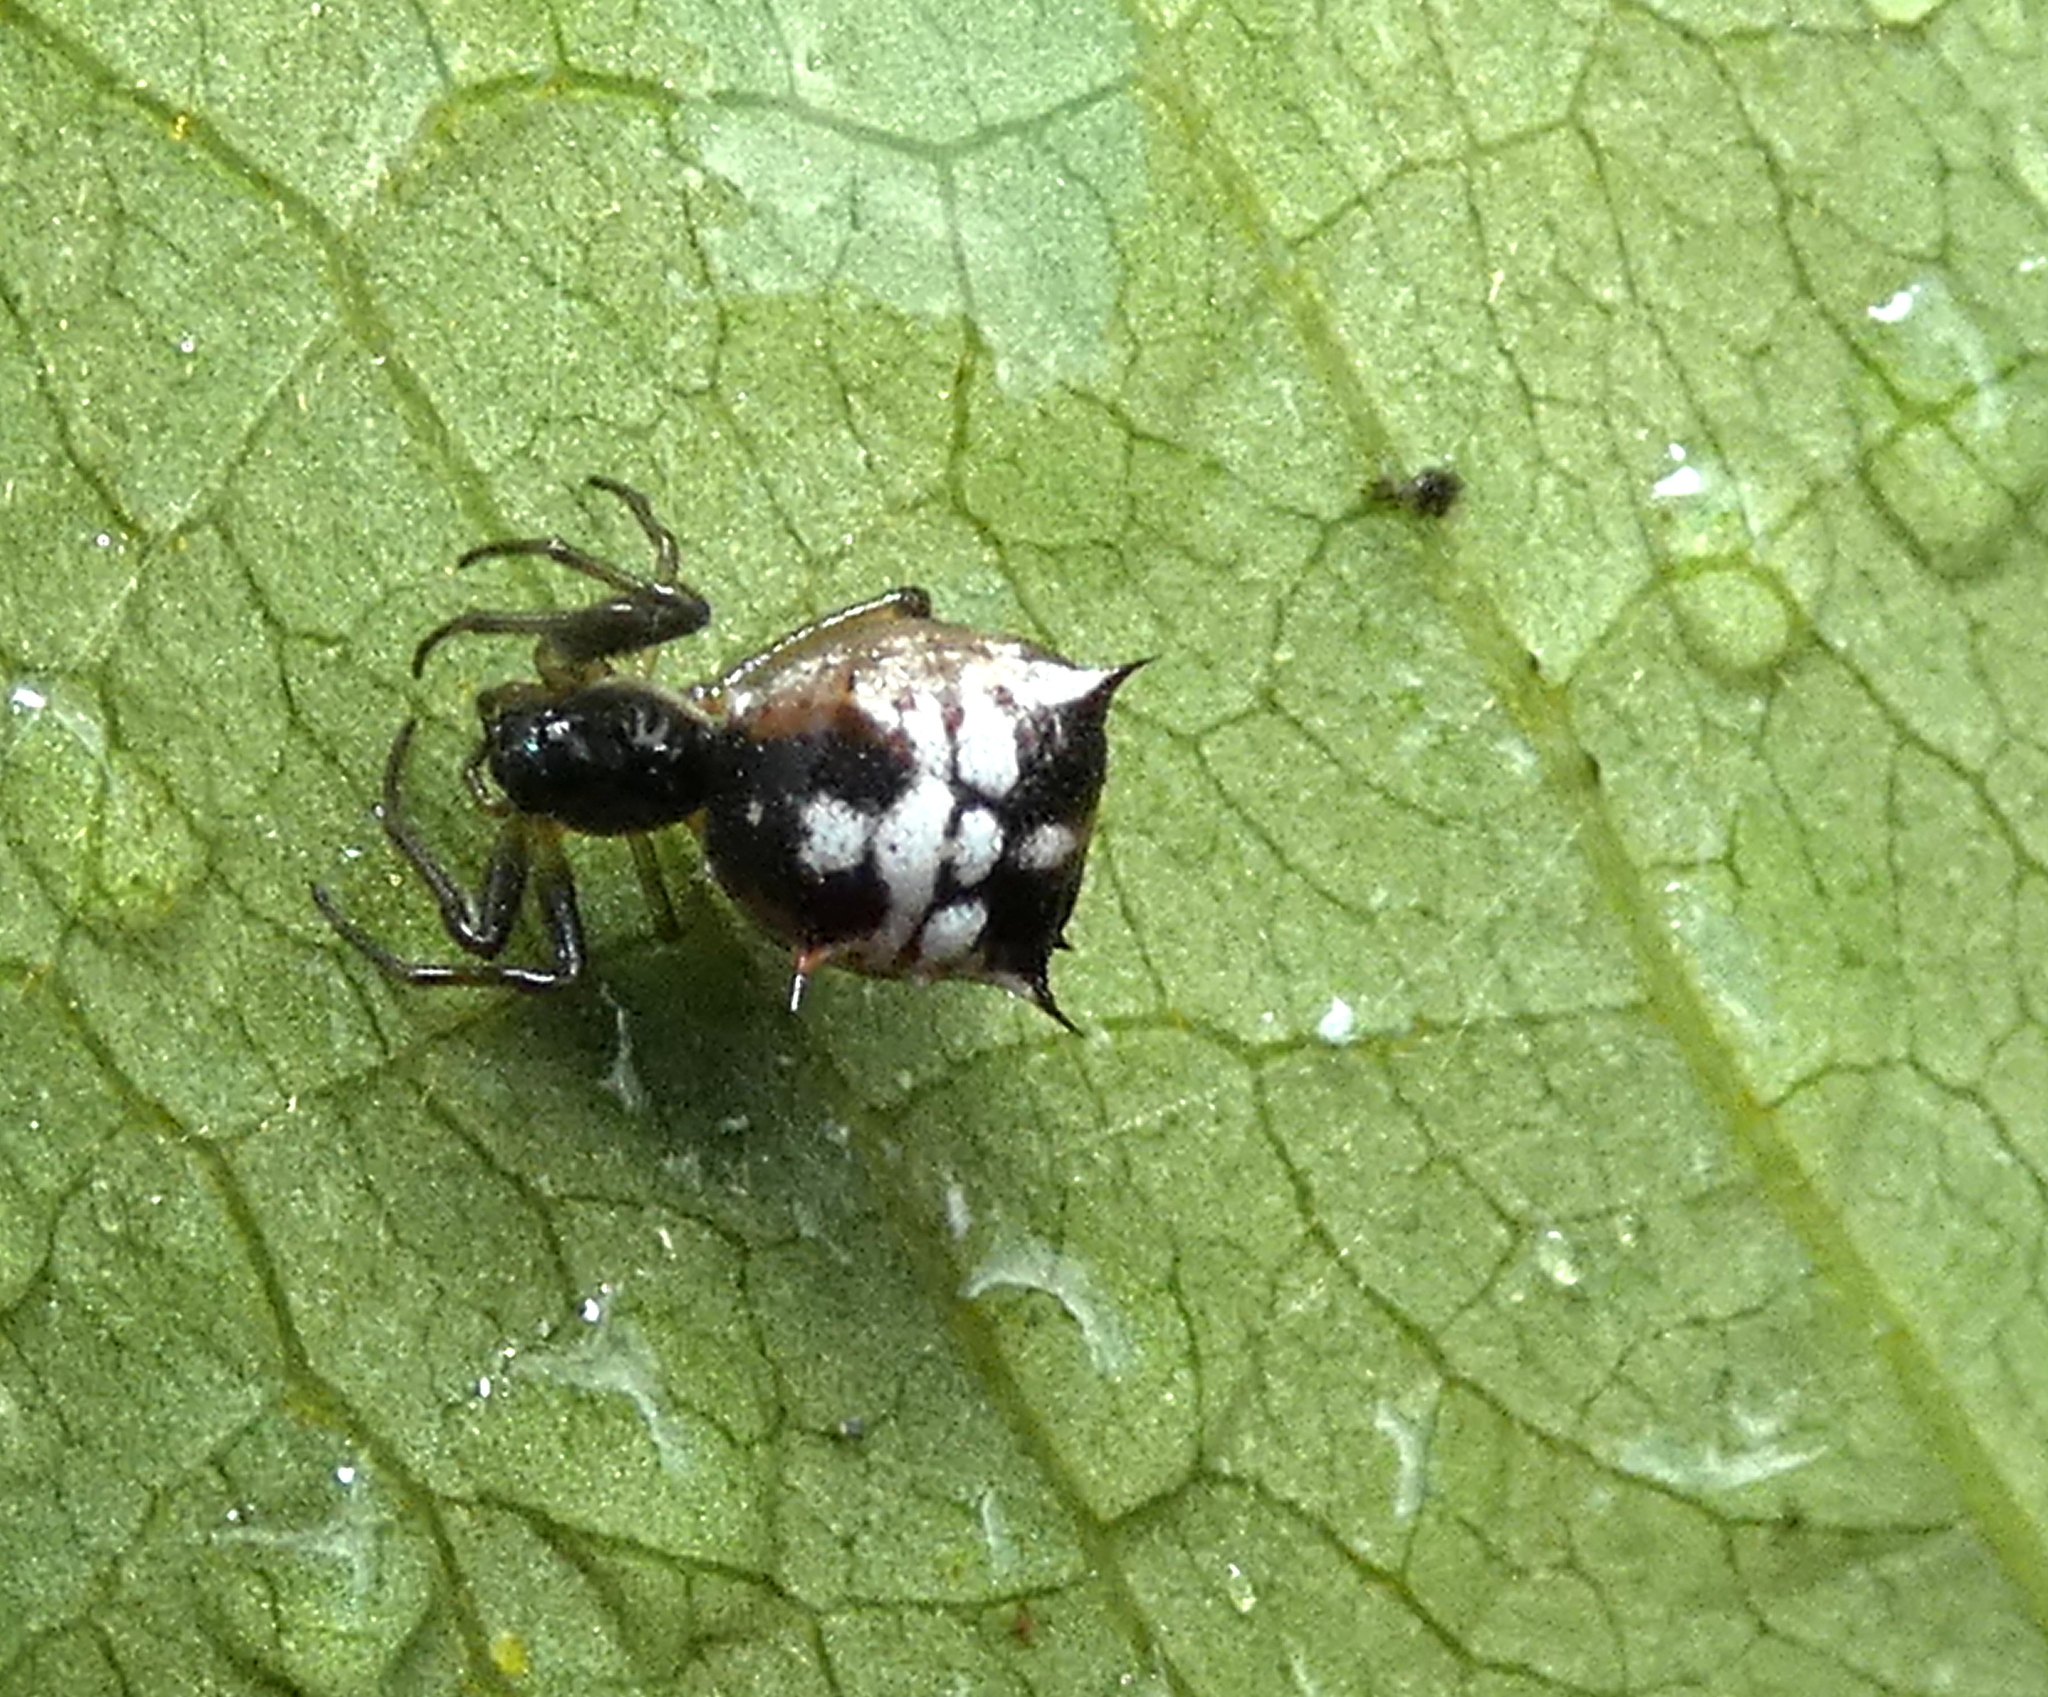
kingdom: Animalia
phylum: Arthropoda
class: Arachnida
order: Araneae
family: Araneidae
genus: Micrathena
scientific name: Micrathena picta
